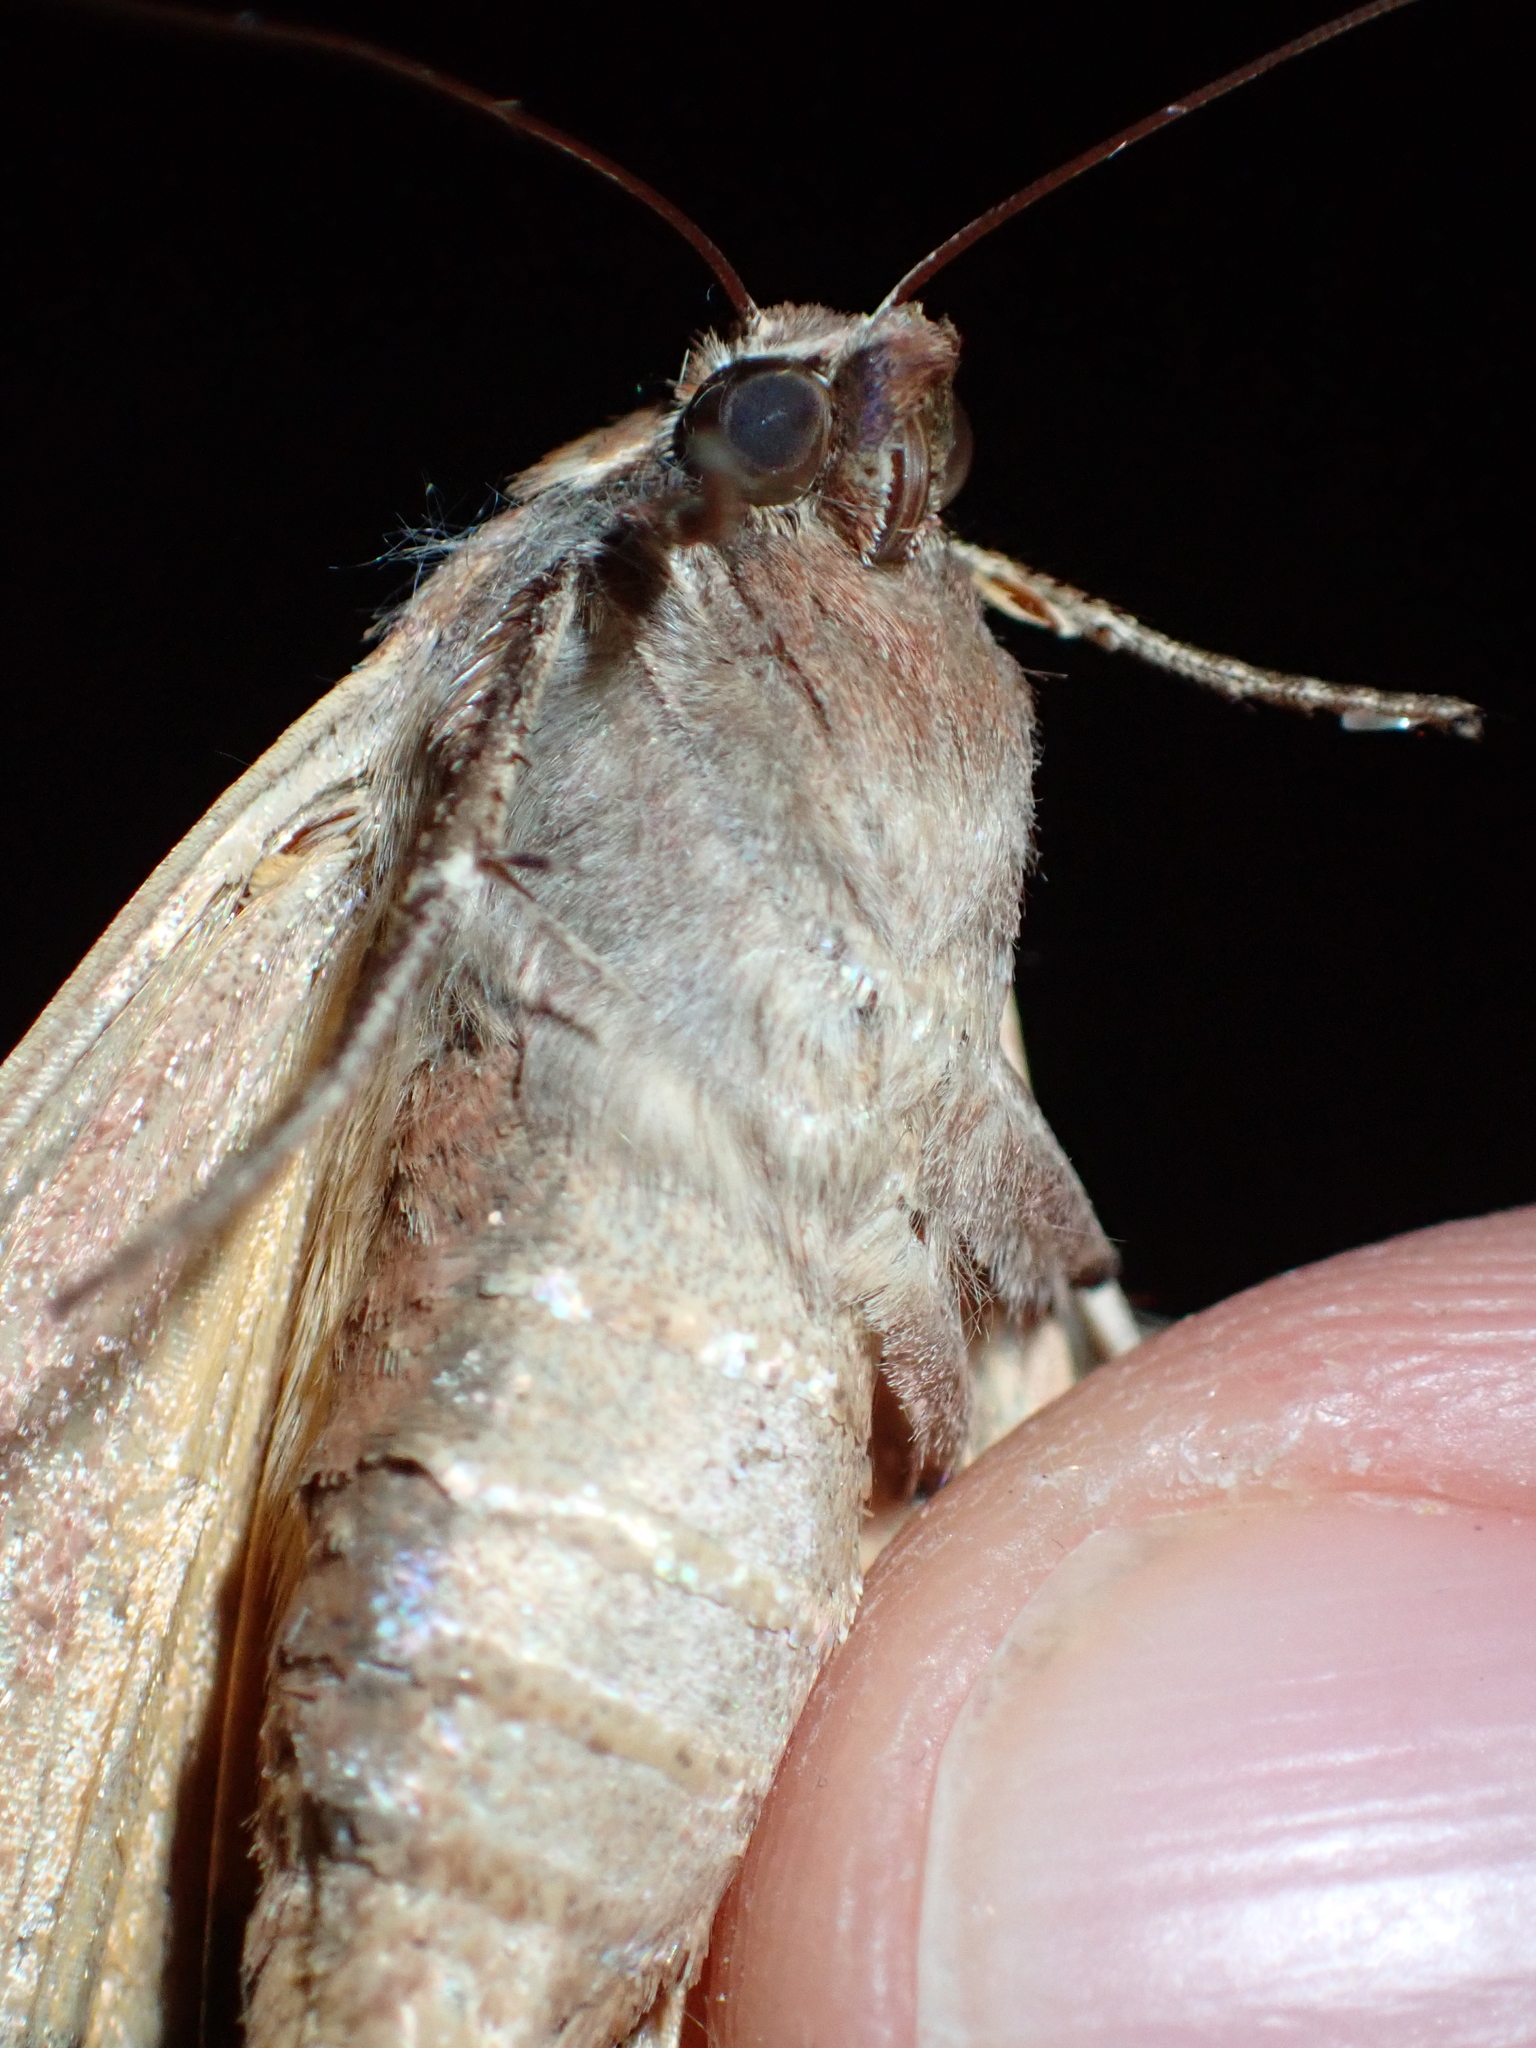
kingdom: Animalia
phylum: Arthropoda
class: Insecta
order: Lepidoptera
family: Noctuidae
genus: Noctua
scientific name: Noctua pronuba
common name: Large yellow underwing
